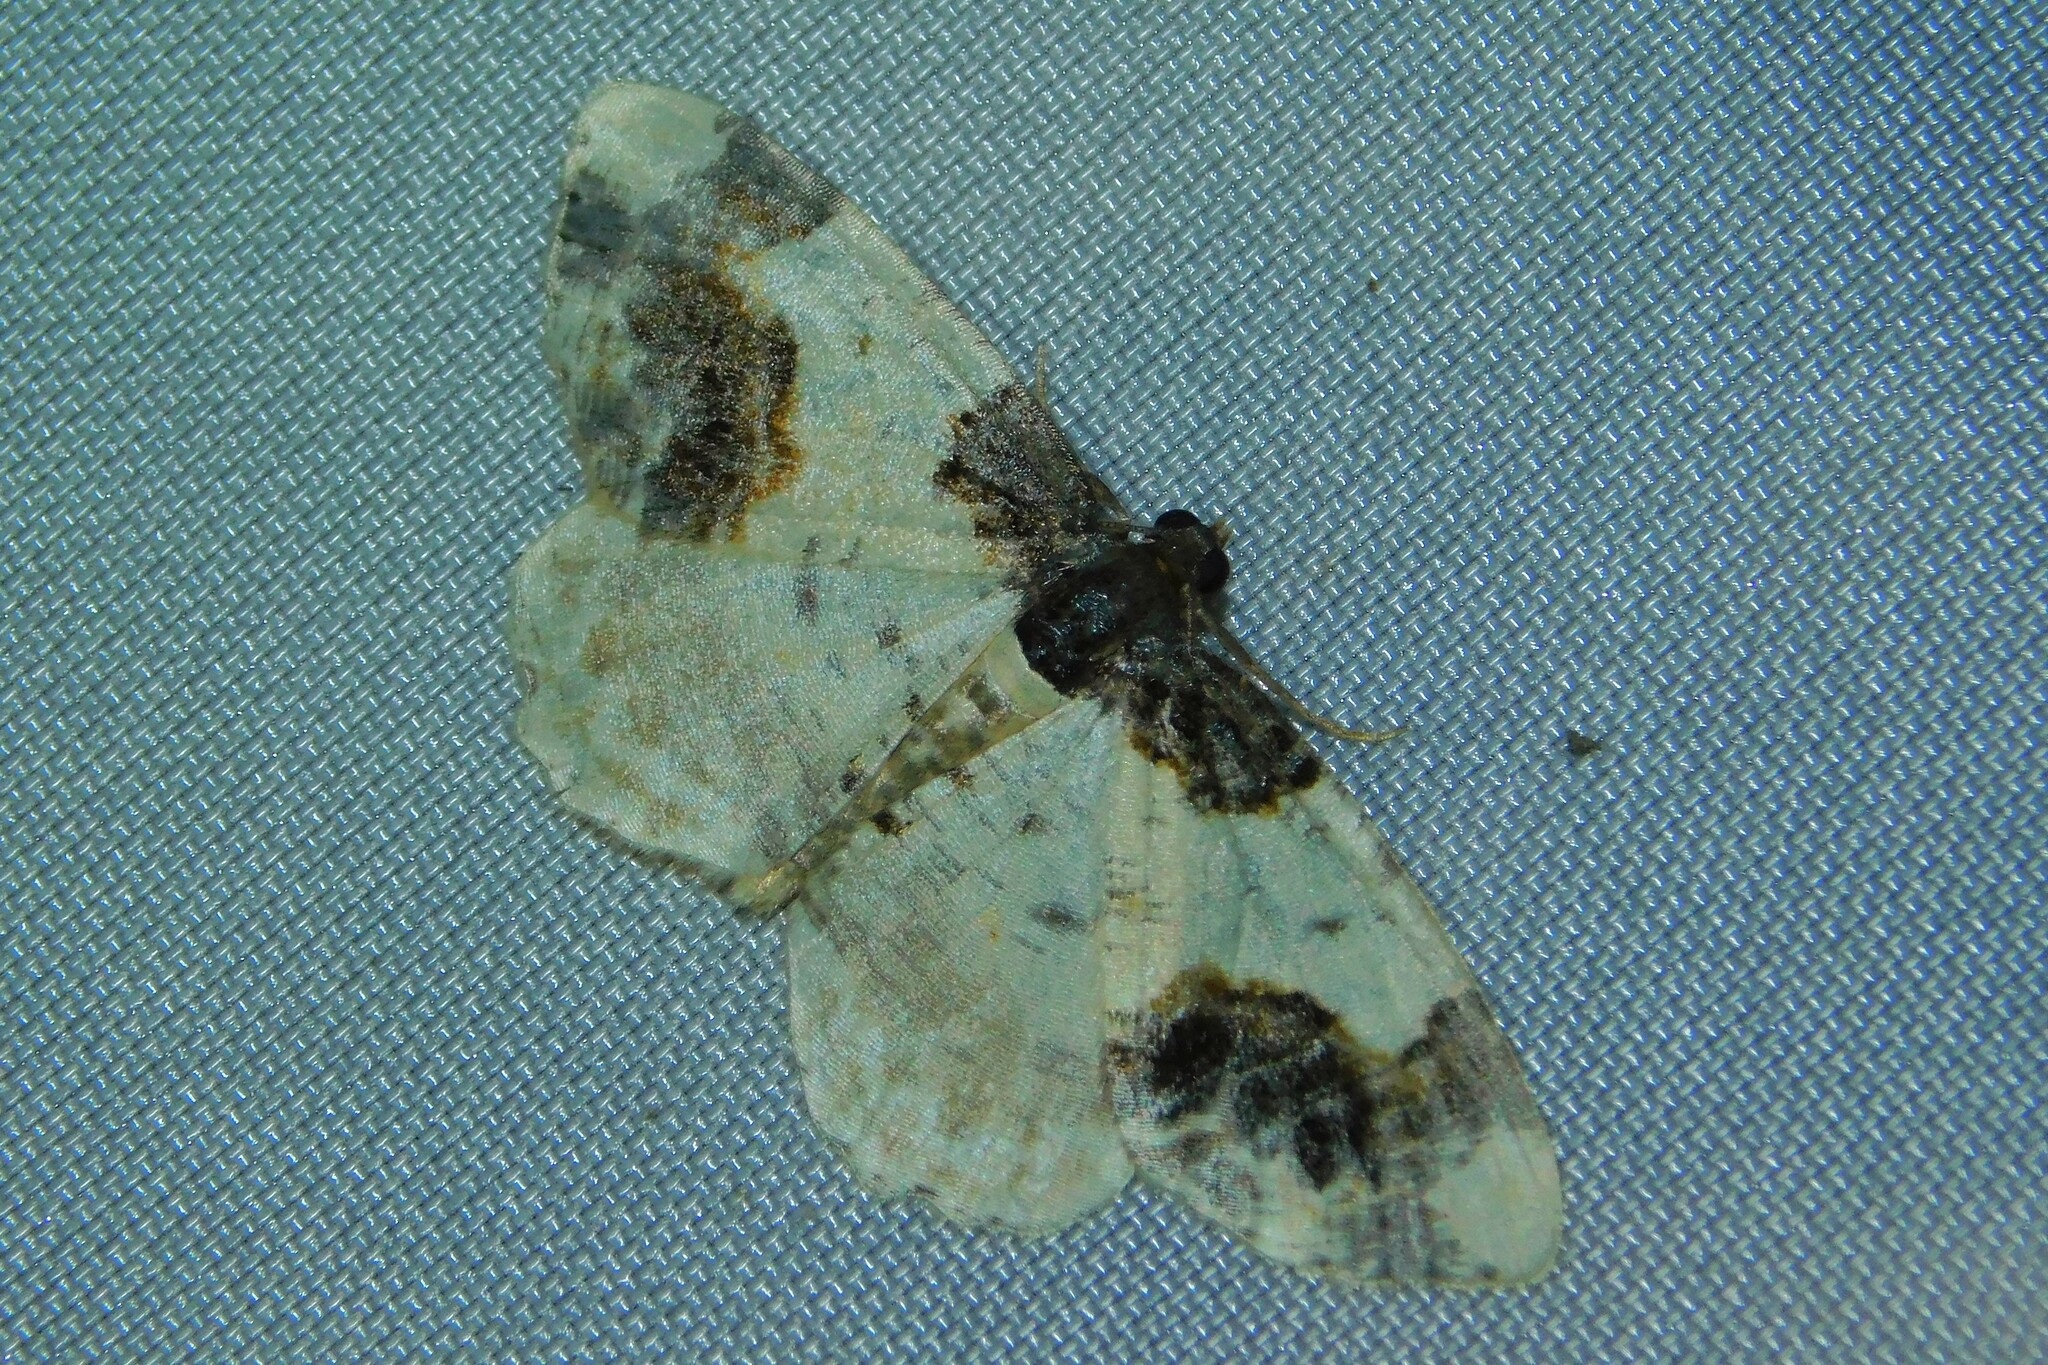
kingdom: Animalia
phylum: Arthropoda
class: Insecta
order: Lepidoptera
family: Geometridae
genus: Ligdia
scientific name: Ligdia adustata
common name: Scorched carpet
